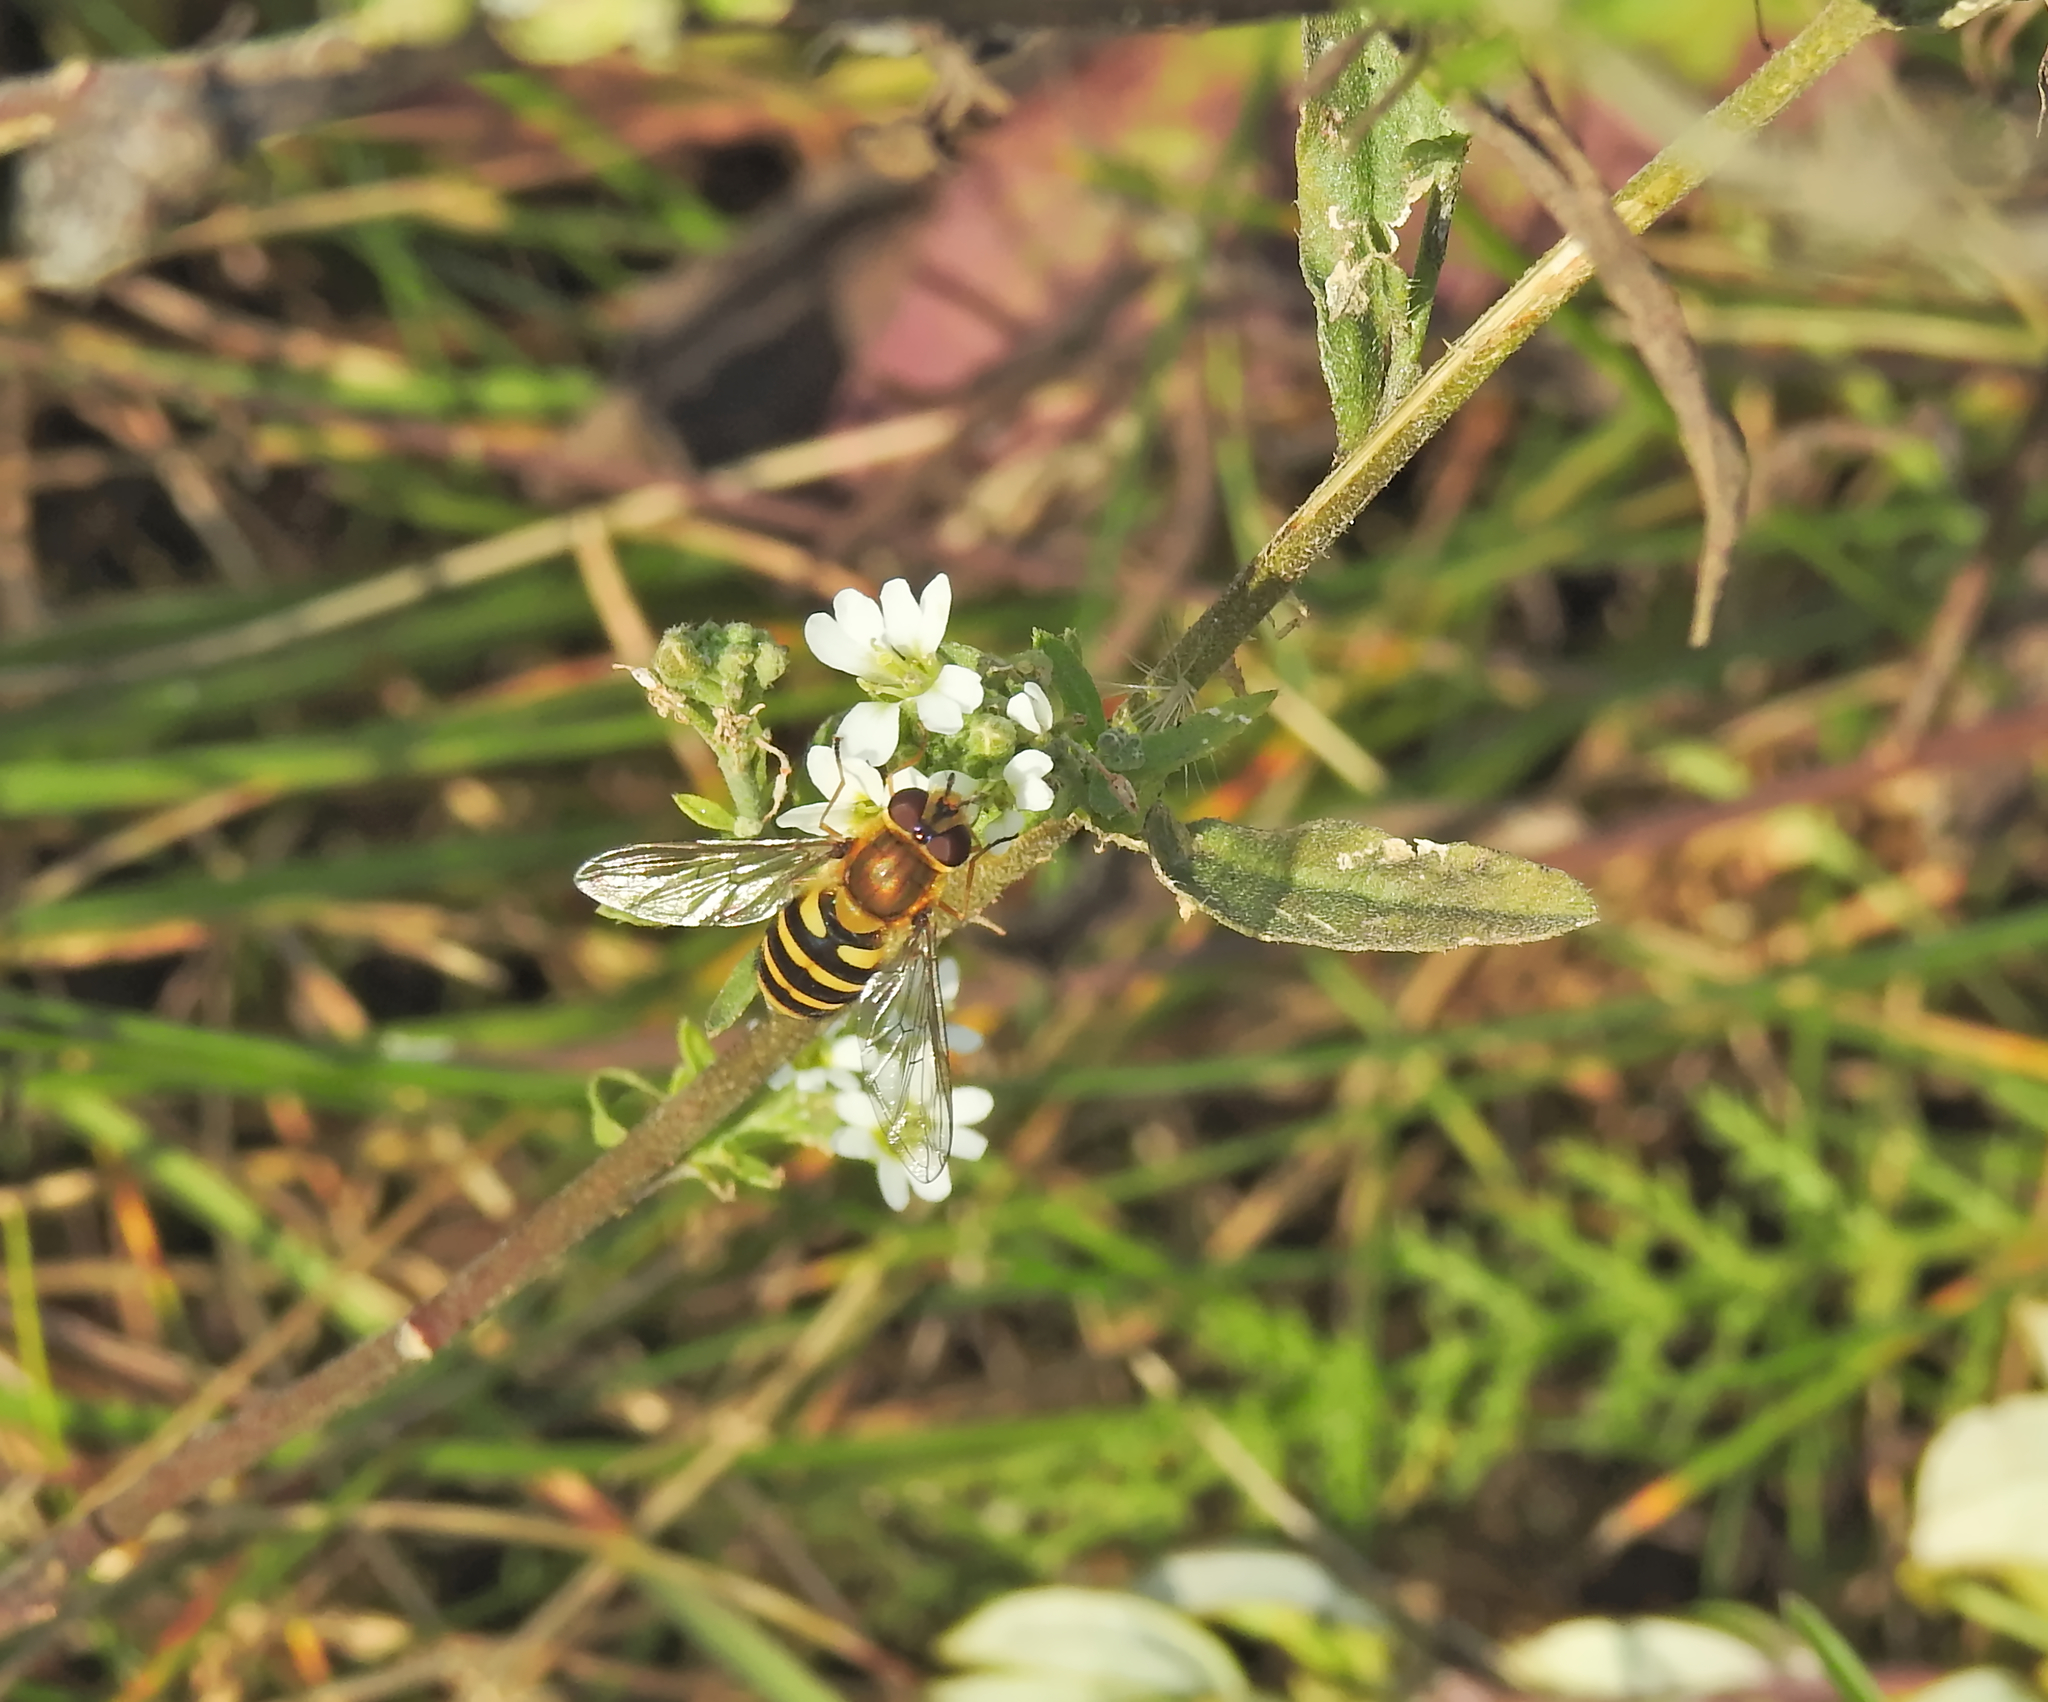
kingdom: Animalia
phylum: Arthropoda
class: Insecta
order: Diptera
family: Syrphidae
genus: Syrphus
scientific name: Syrphus
